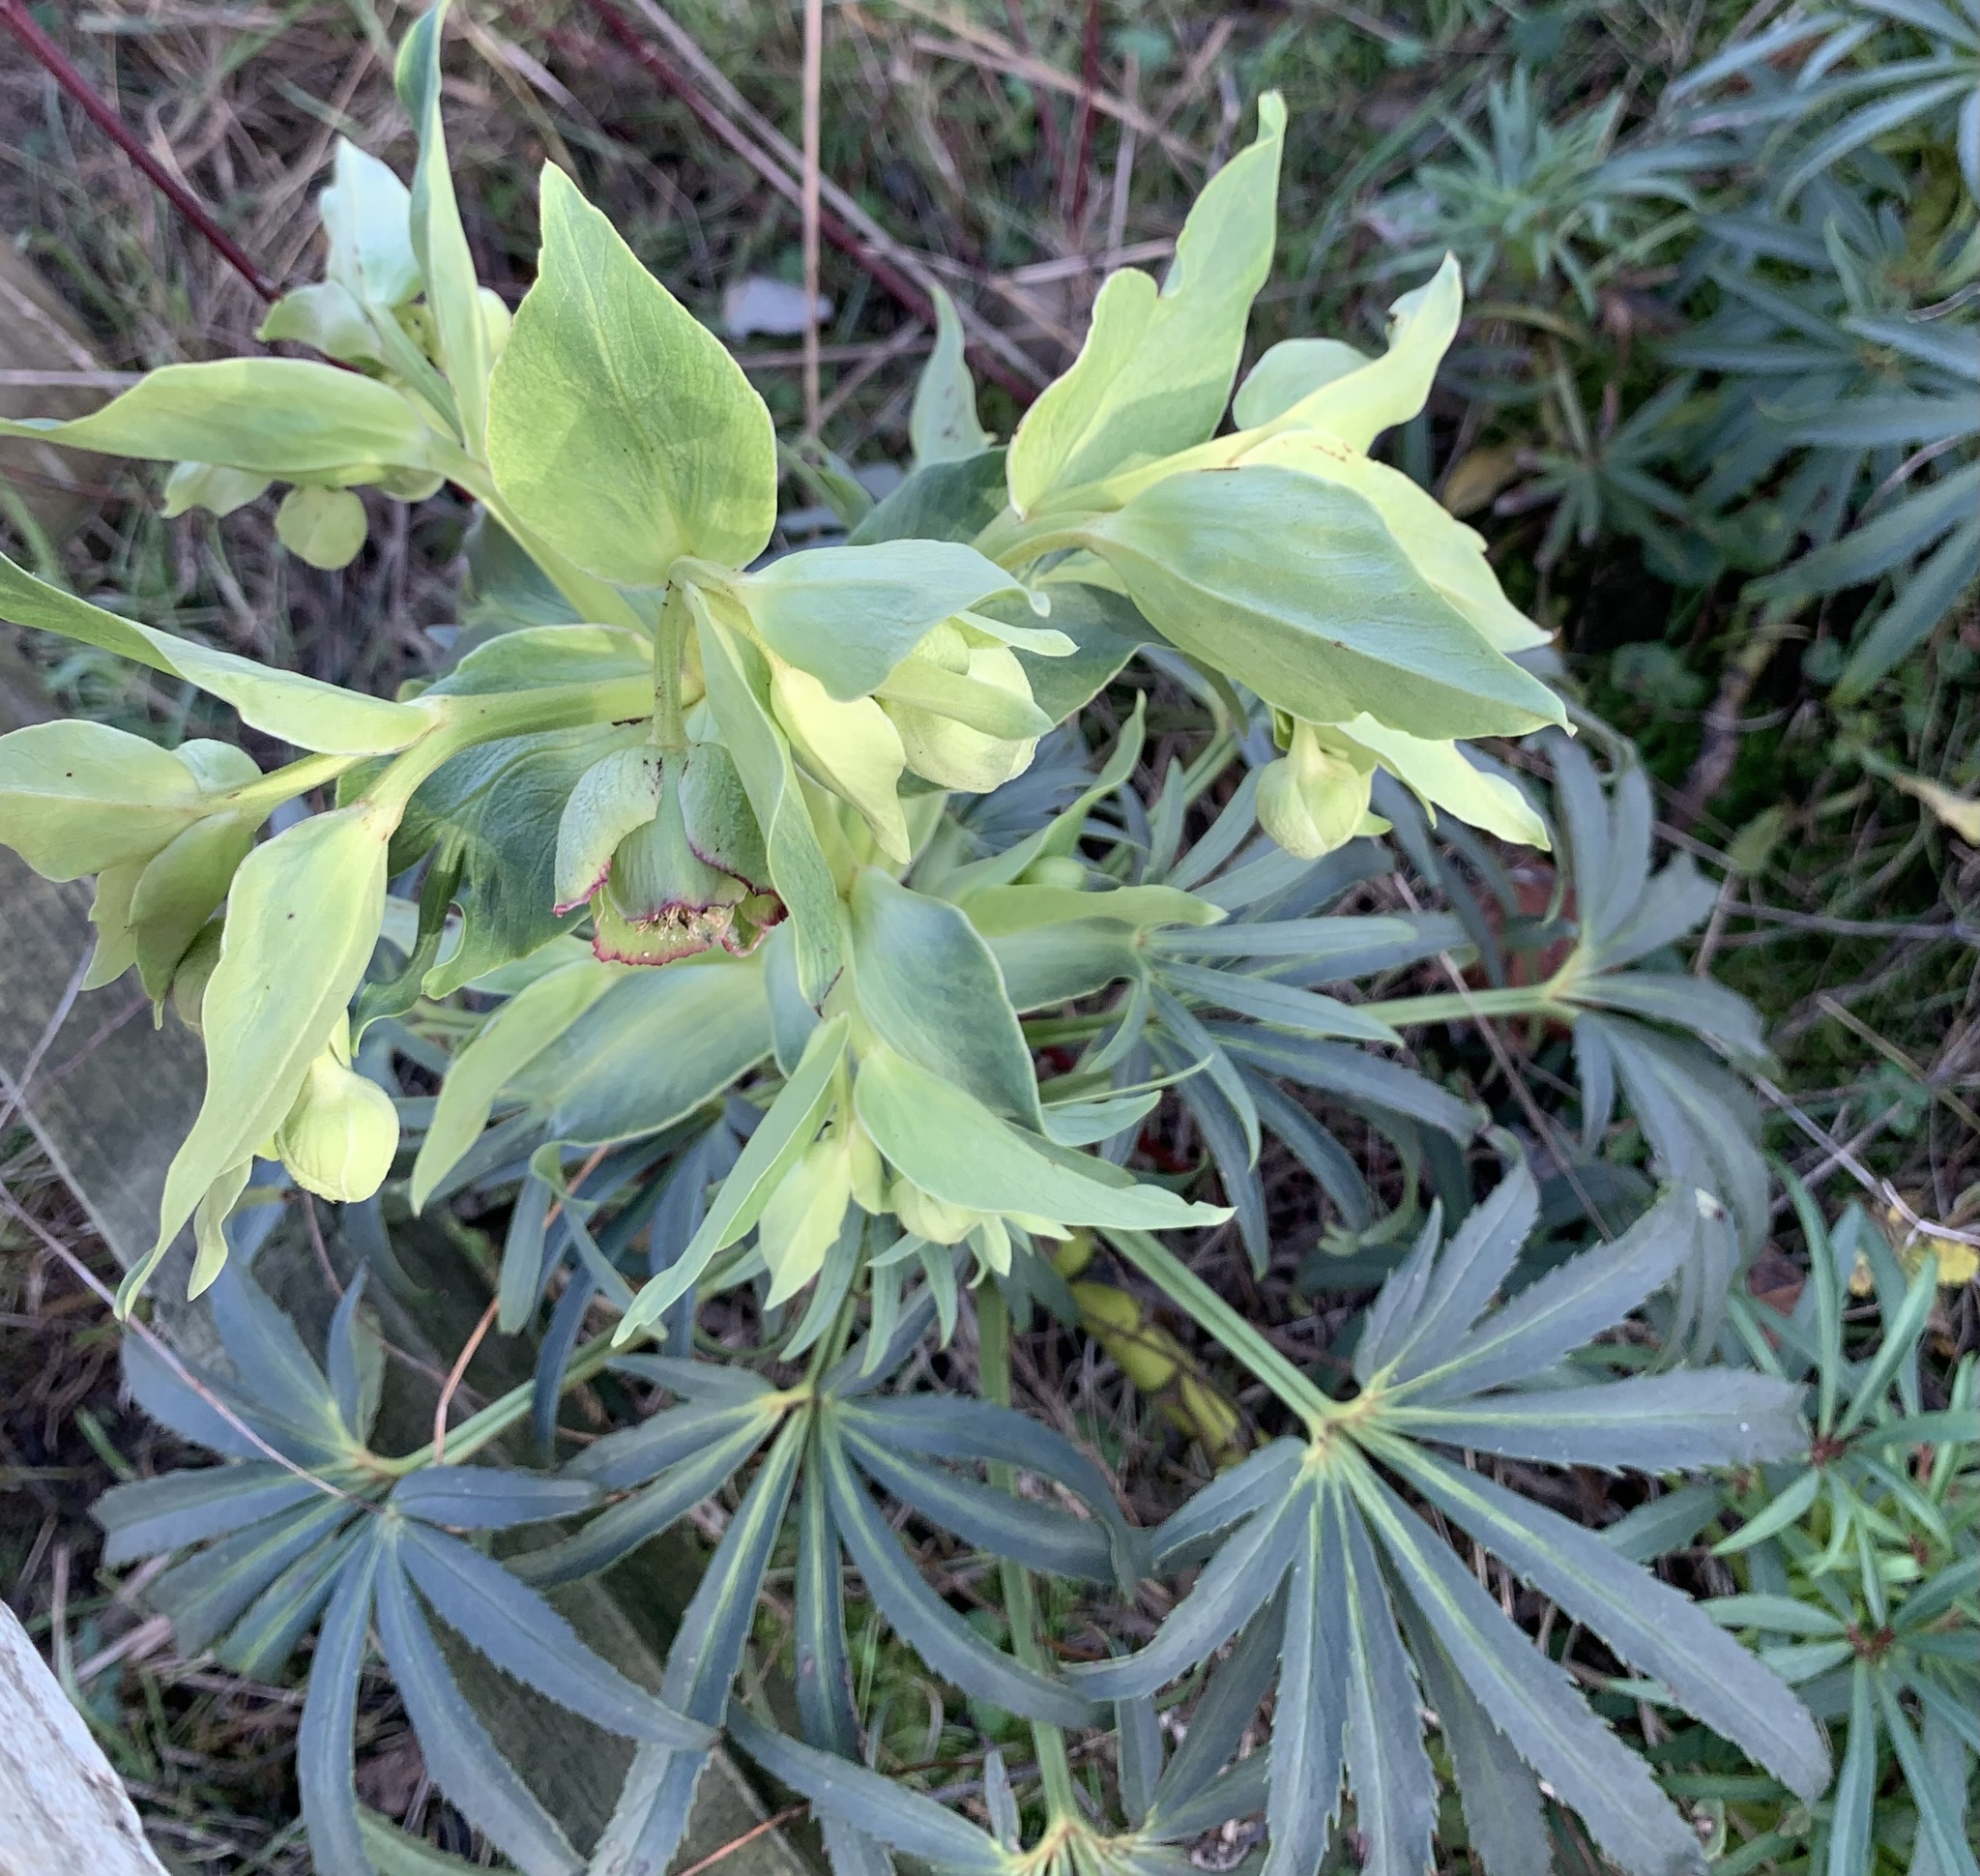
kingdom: Plantae
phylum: Tracheophyta
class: Magnoliopsida
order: Ranunculales
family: Ranunculaceae
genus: Helleborus
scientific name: Helleborus foetidus
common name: Stinking hellebore
